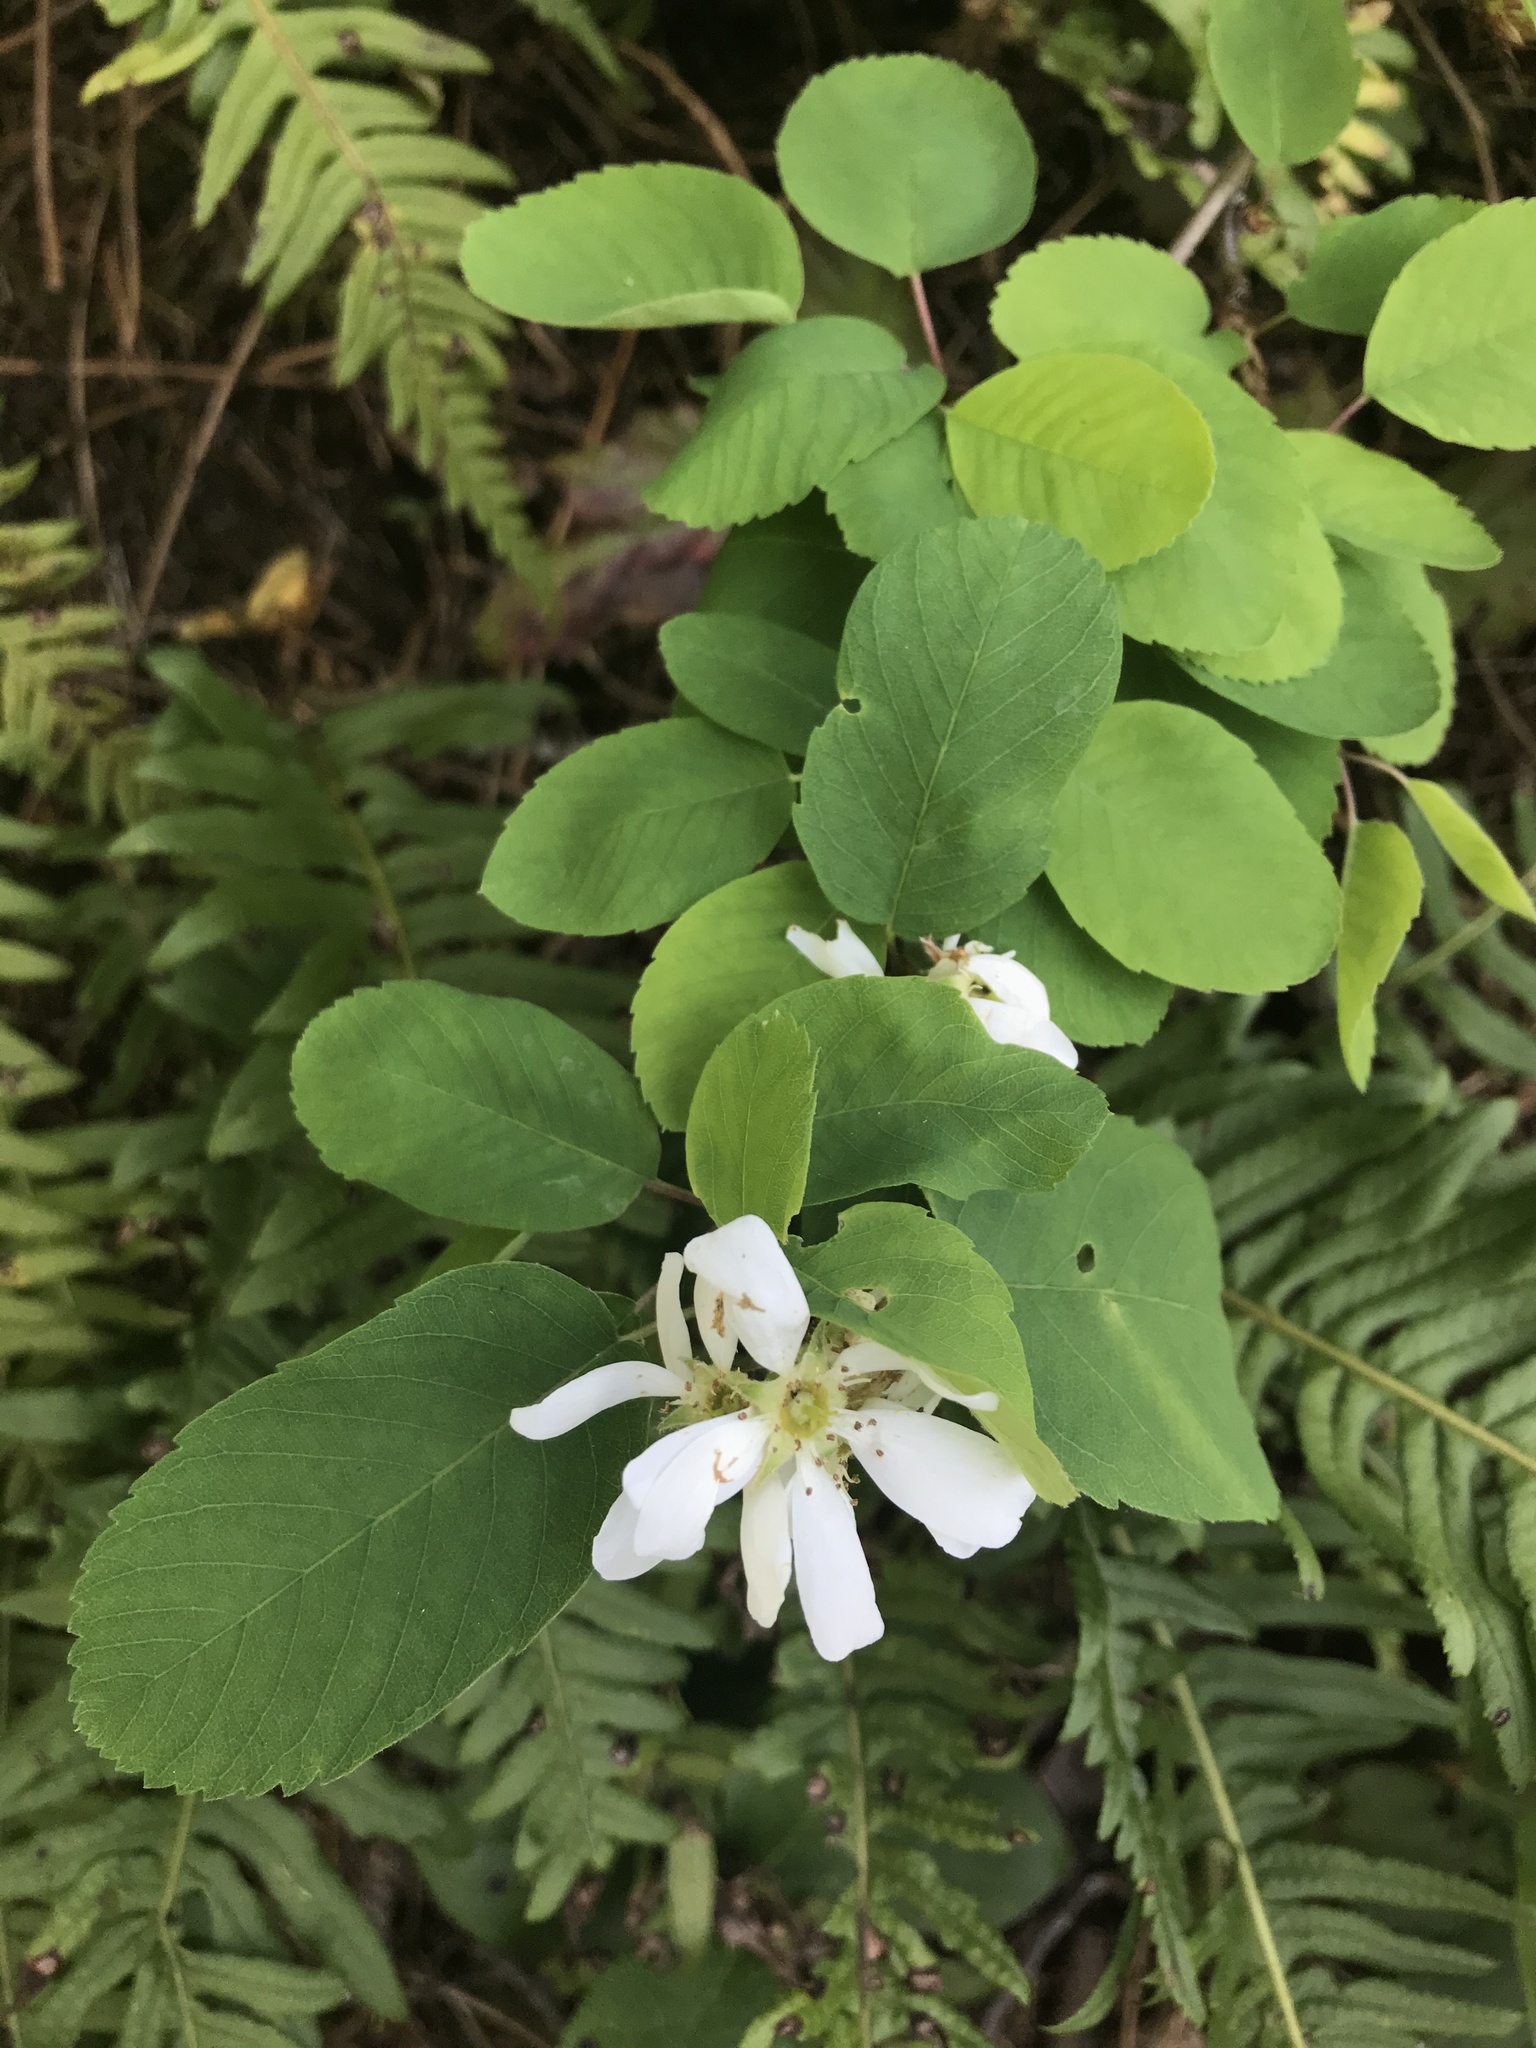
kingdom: Plantae
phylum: Tracheophyta
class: Magnoliopsida
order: Rosales
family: Rosaceae
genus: Amelanchier
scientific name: Amelanchier alnifolia
